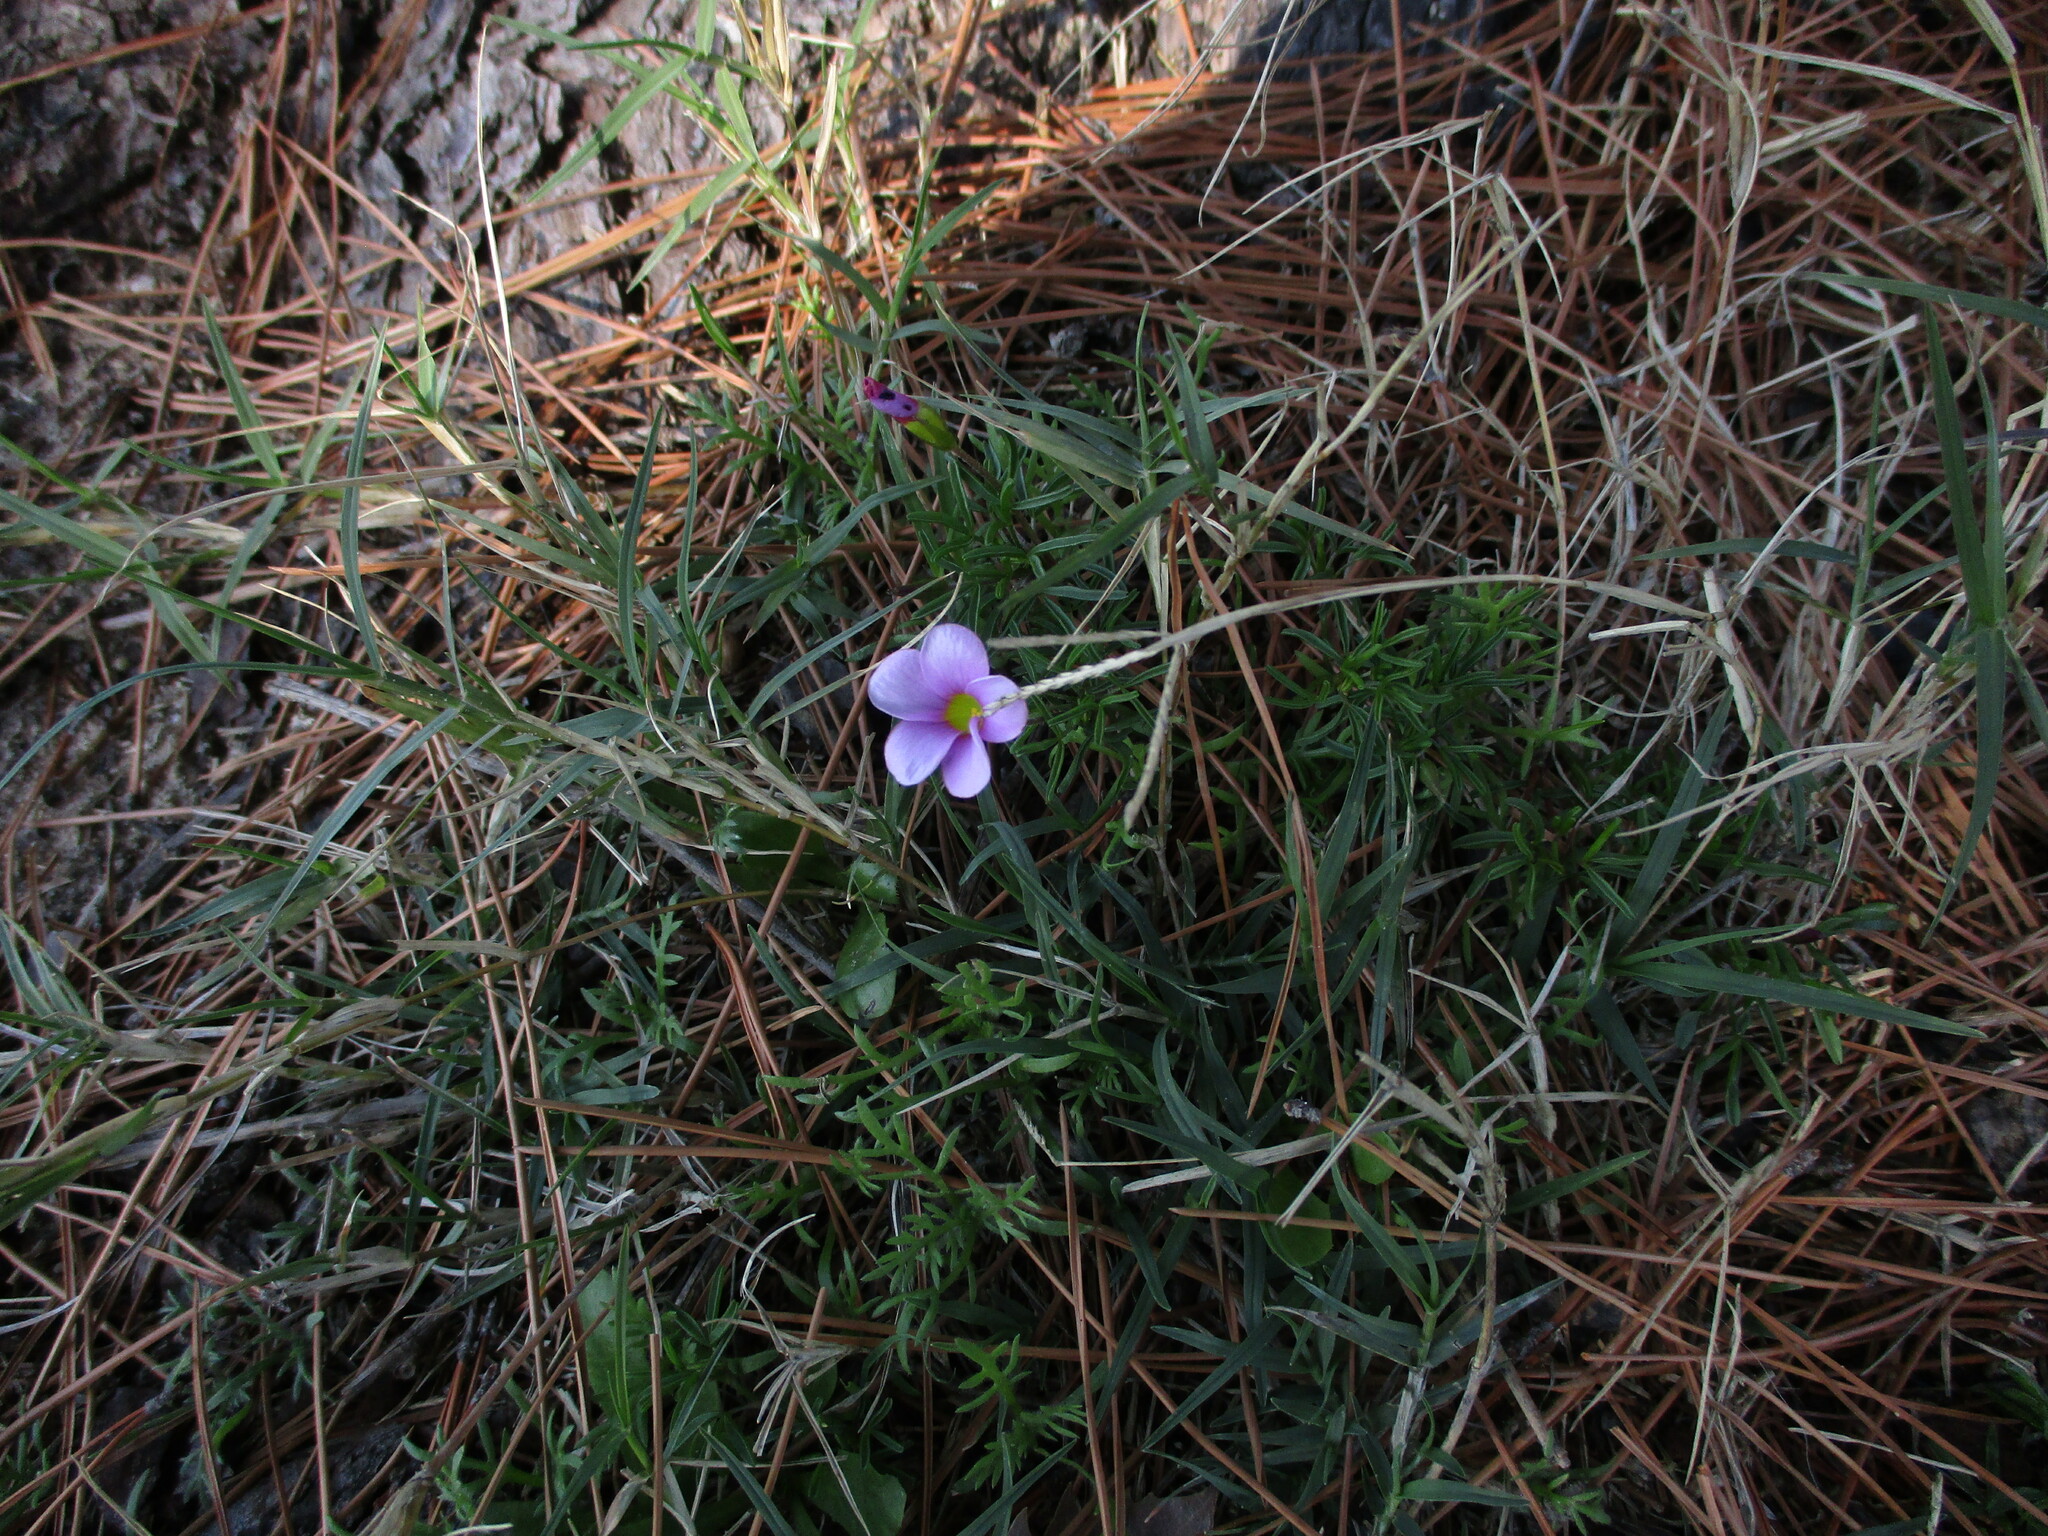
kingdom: Plantae
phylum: Tracheophyta
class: Magnoliopsida
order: Oxalidales
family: Oxalidaceae
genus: Oxalis
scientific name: Oxalis glabra
